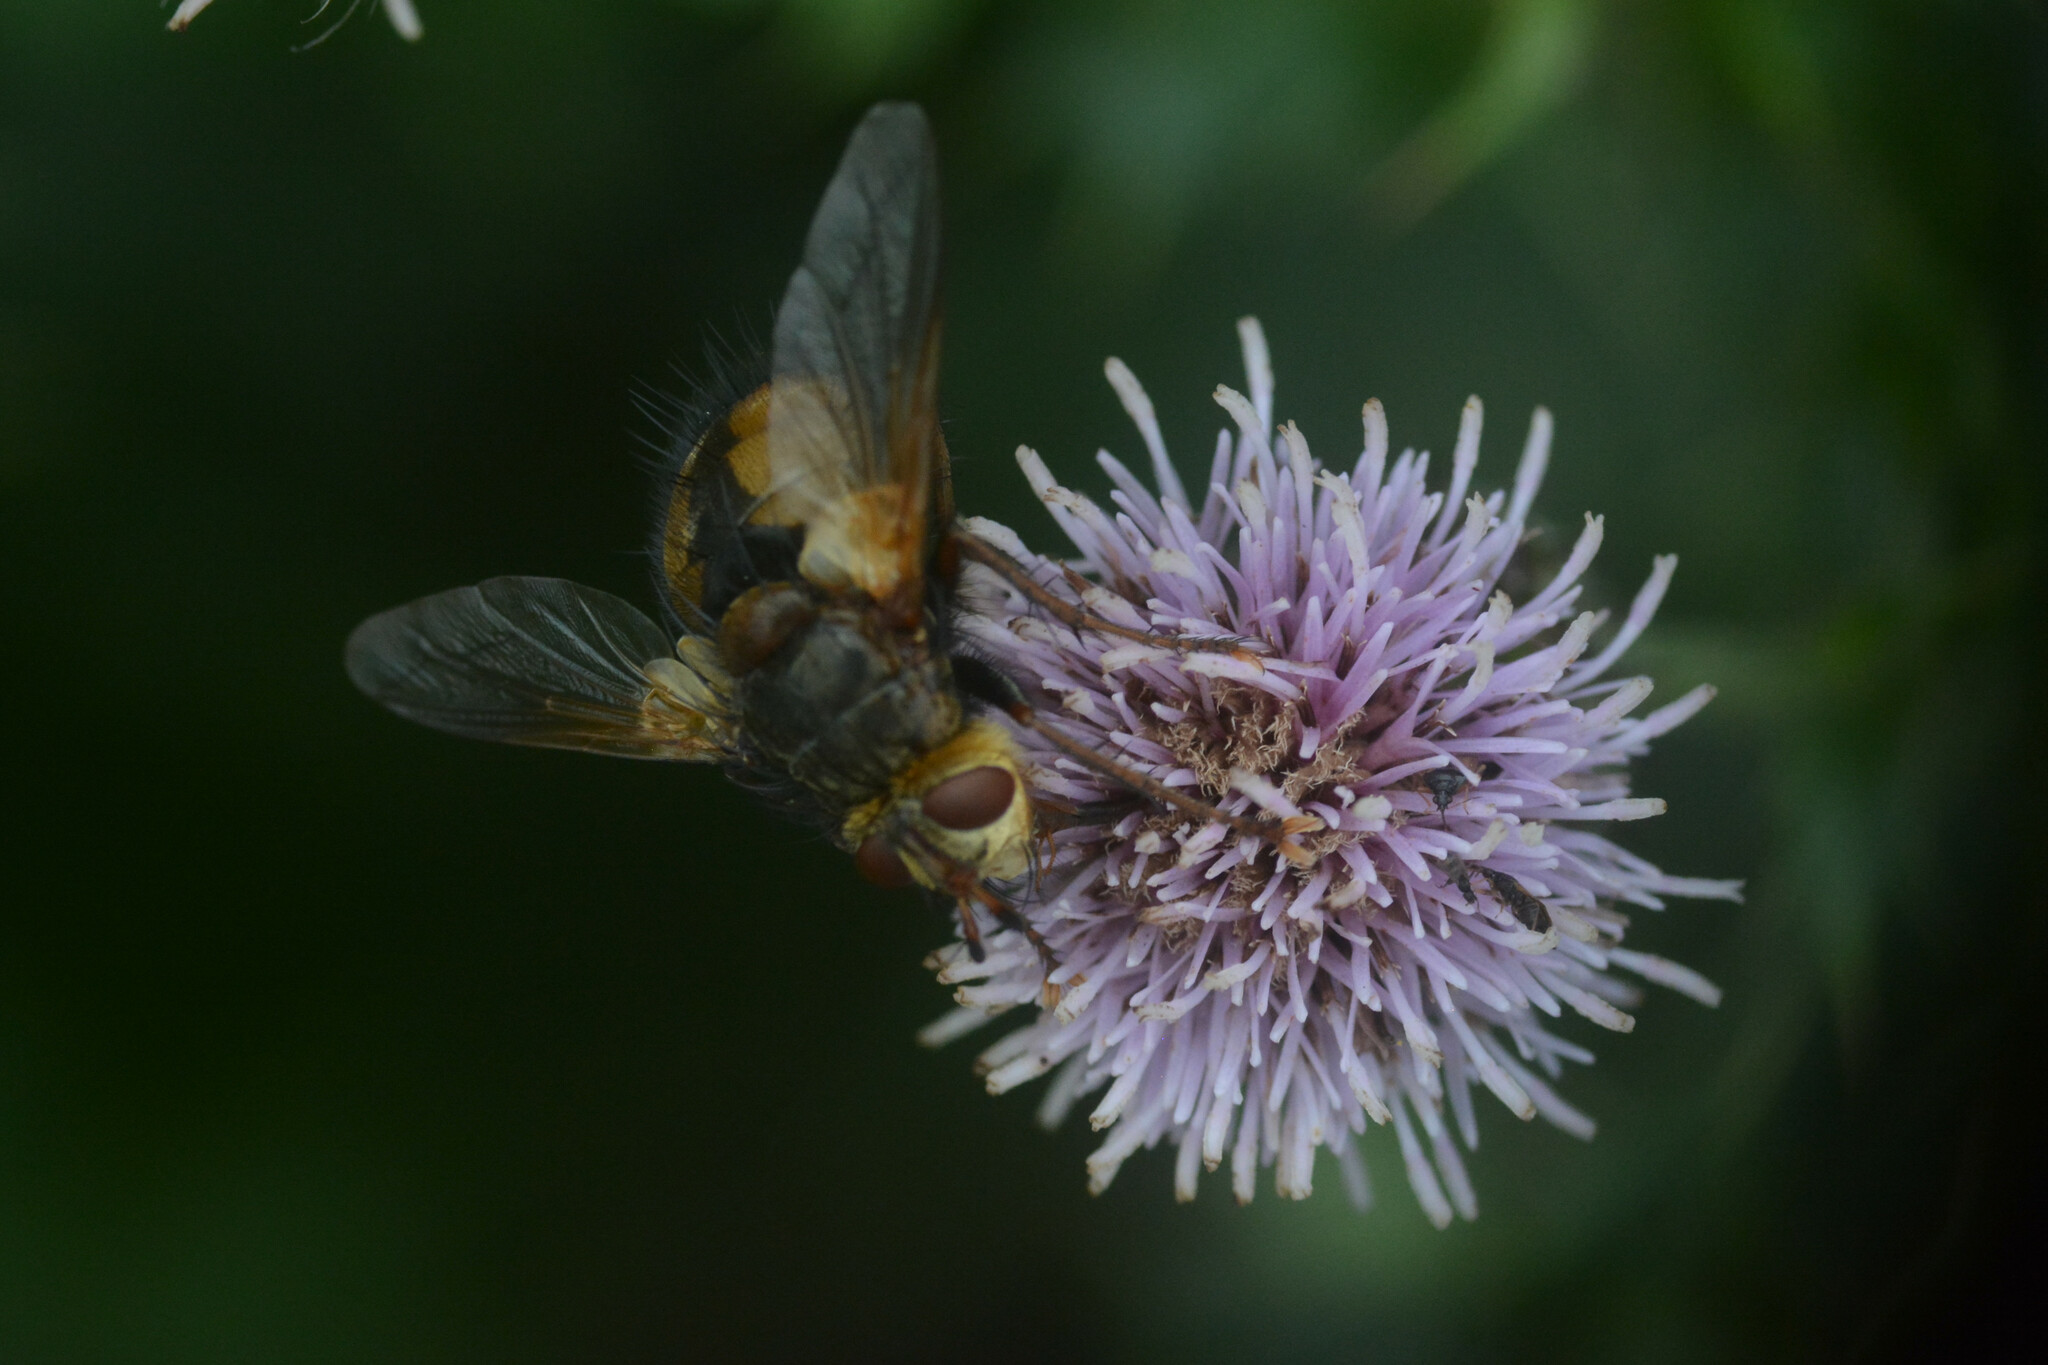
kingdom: Animalia
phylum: Arthropoda
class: Insecta
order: Diptera
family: Tachinidae
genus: Tachina
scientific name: Tachina fera
